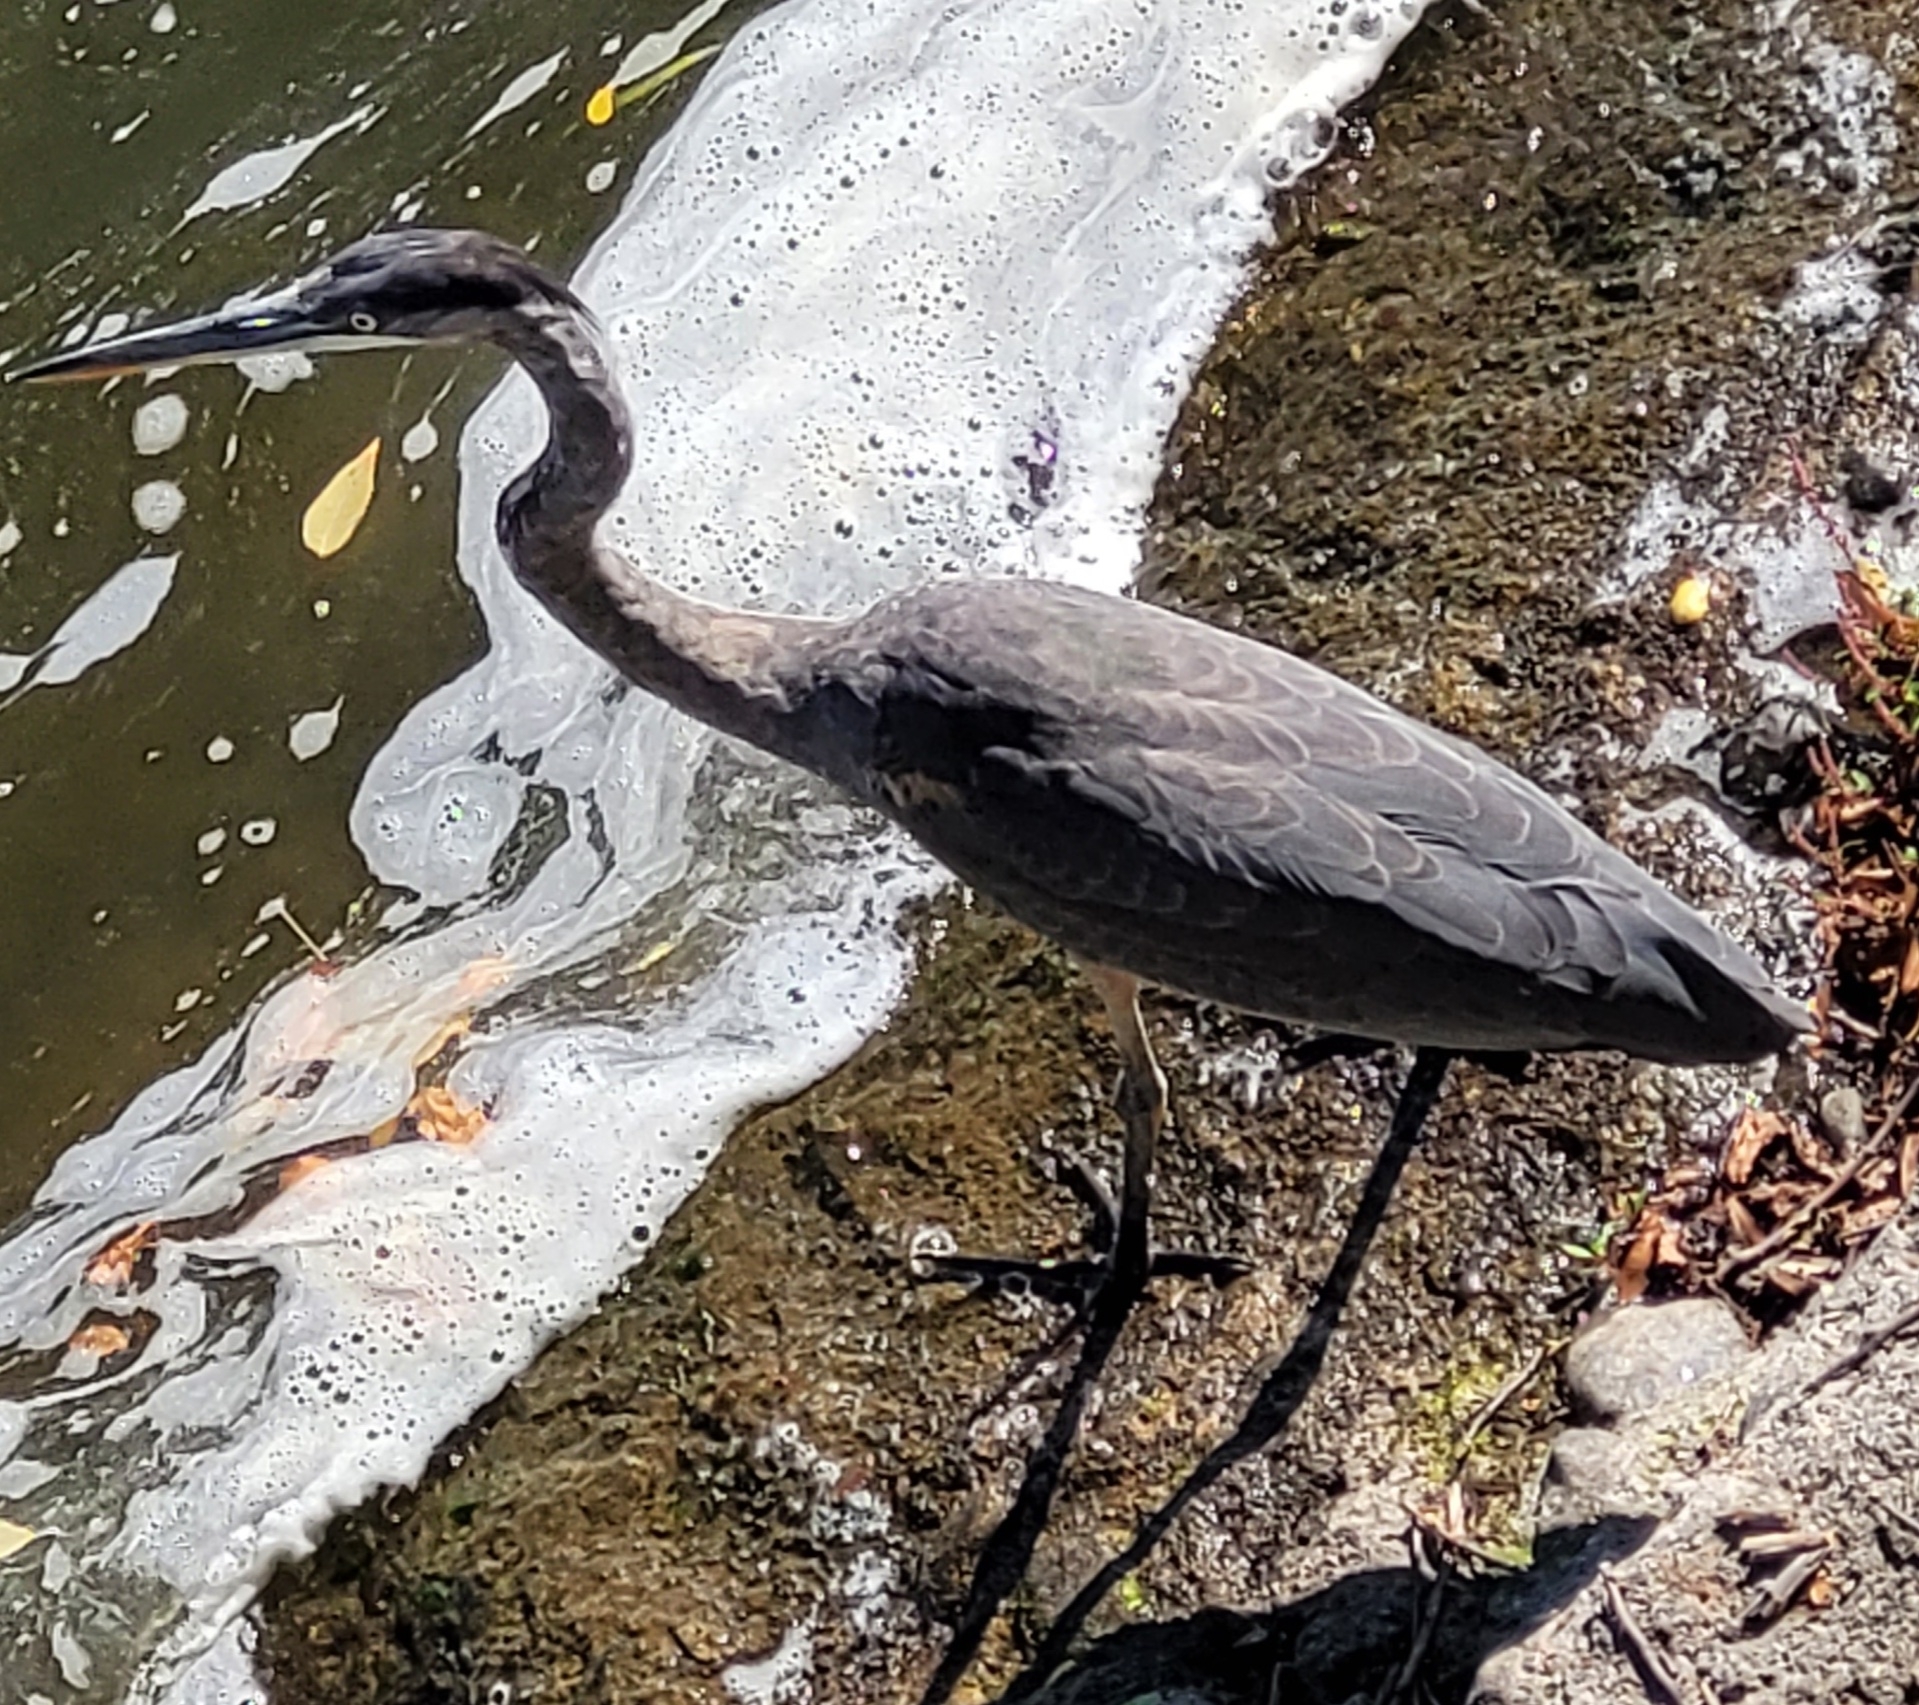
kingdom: Animalia
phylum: Chordata
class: Aves
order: Pelecaniformes
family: Ardeidae
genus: Ardea
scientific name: Ardea herodias
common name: Great blue heron
